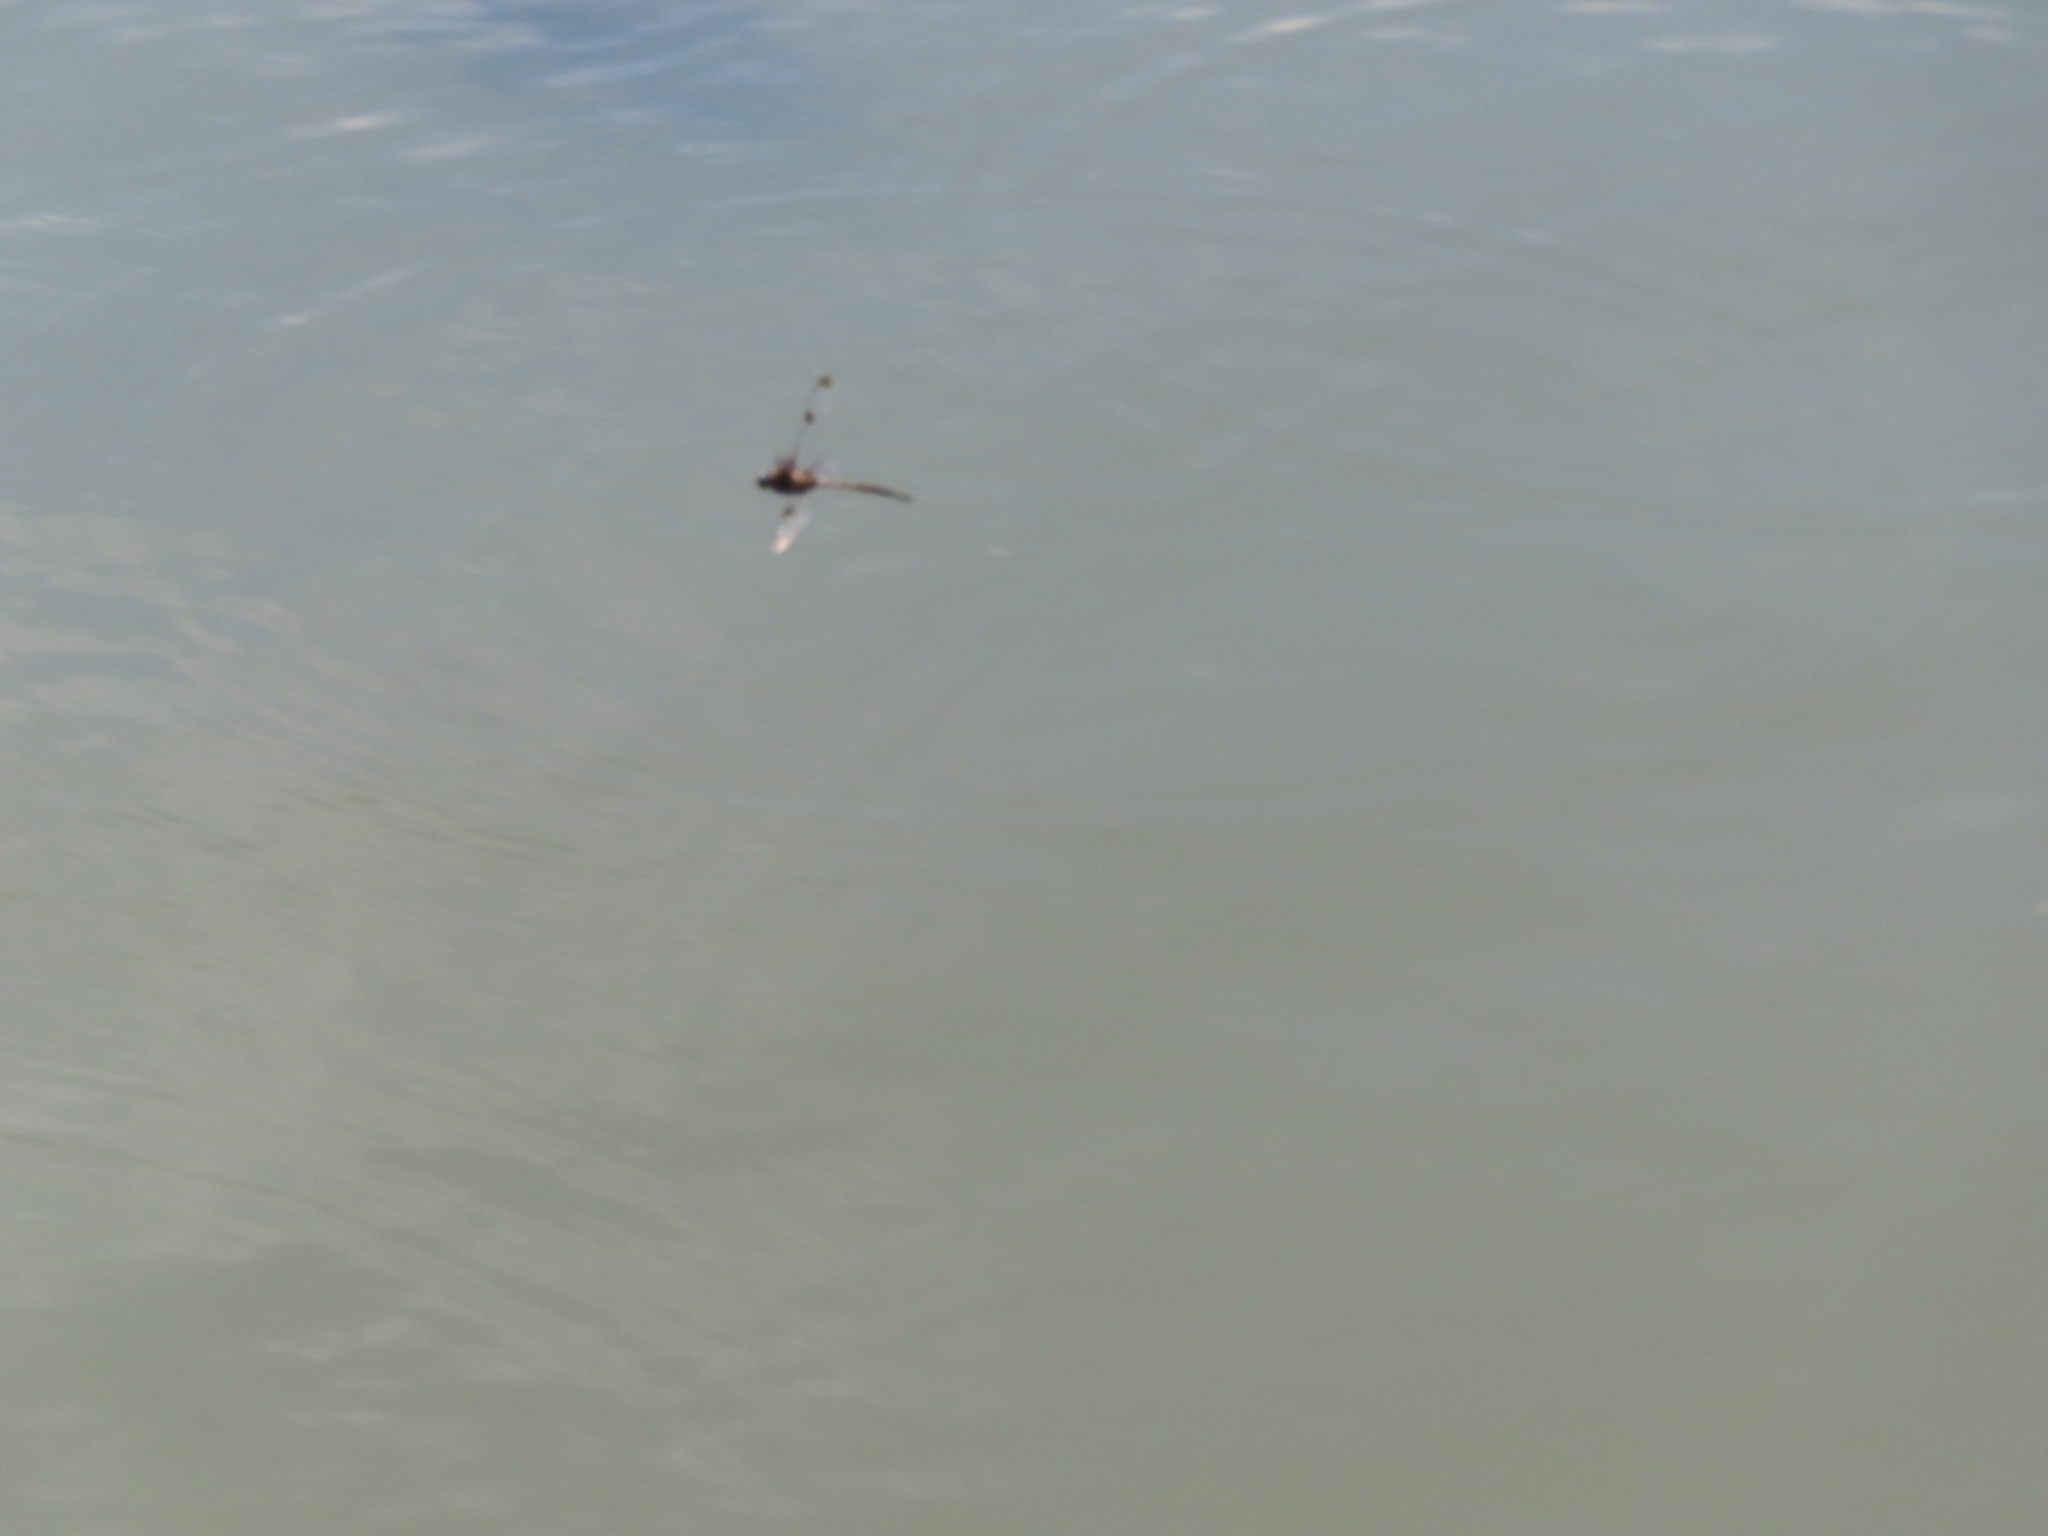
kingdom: Animalia
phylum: Arthropoda
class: Insecta
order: Odonata
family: Corduliidae
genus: Epitheca
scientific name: Epitheca princeps
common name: Prince baskettail
